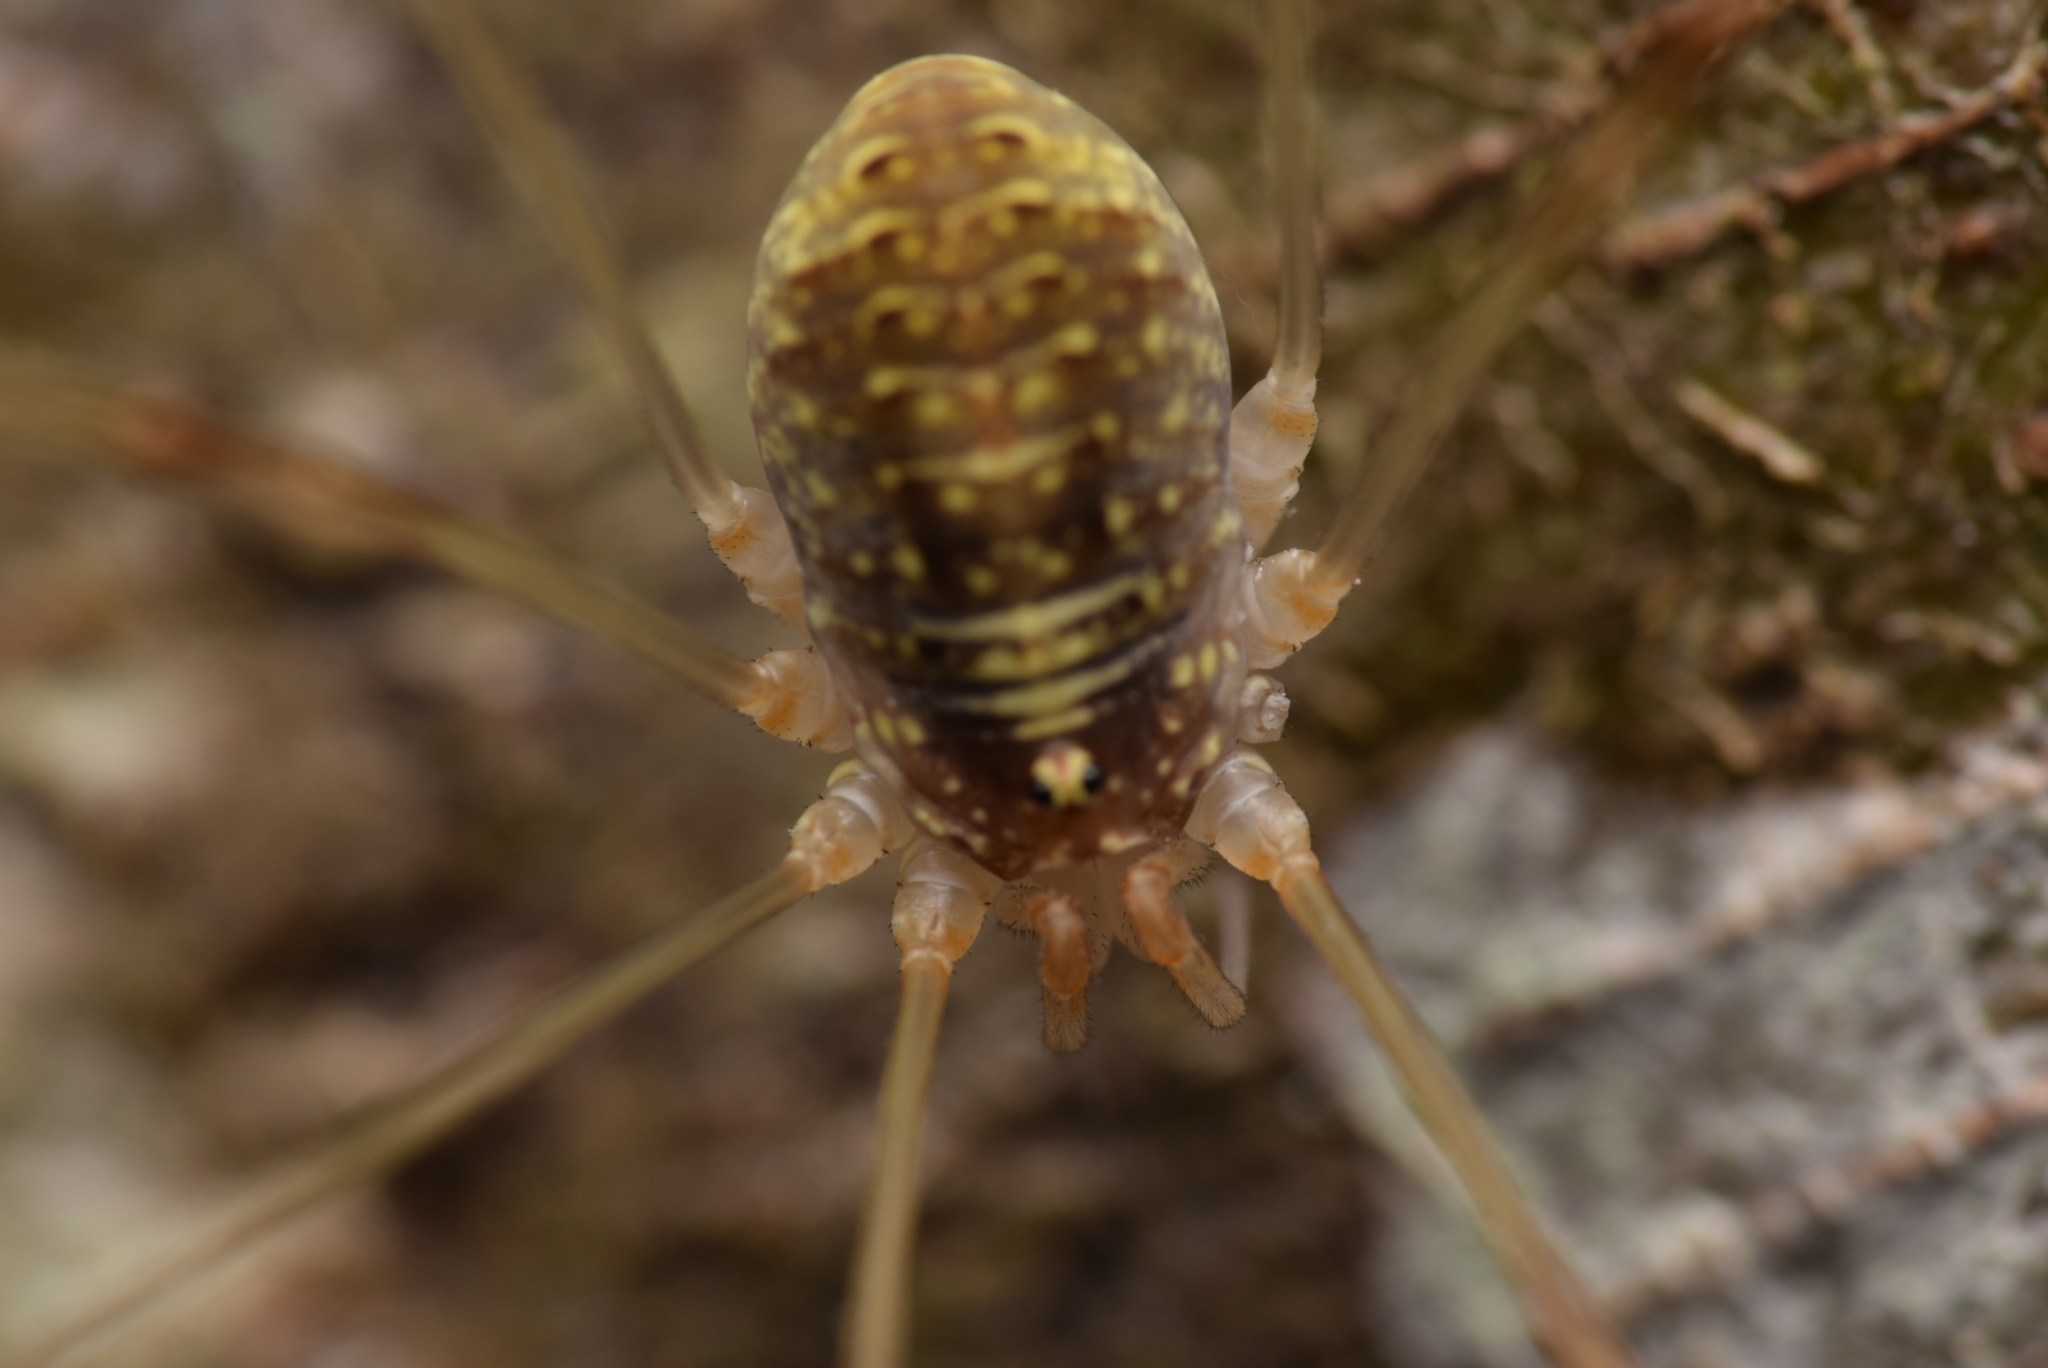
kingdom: Animalia
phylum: Arthropoda
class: Arachnida
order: Opiliones
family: Phalangiidae
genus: Opilio
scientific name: Opilio canestrinii
